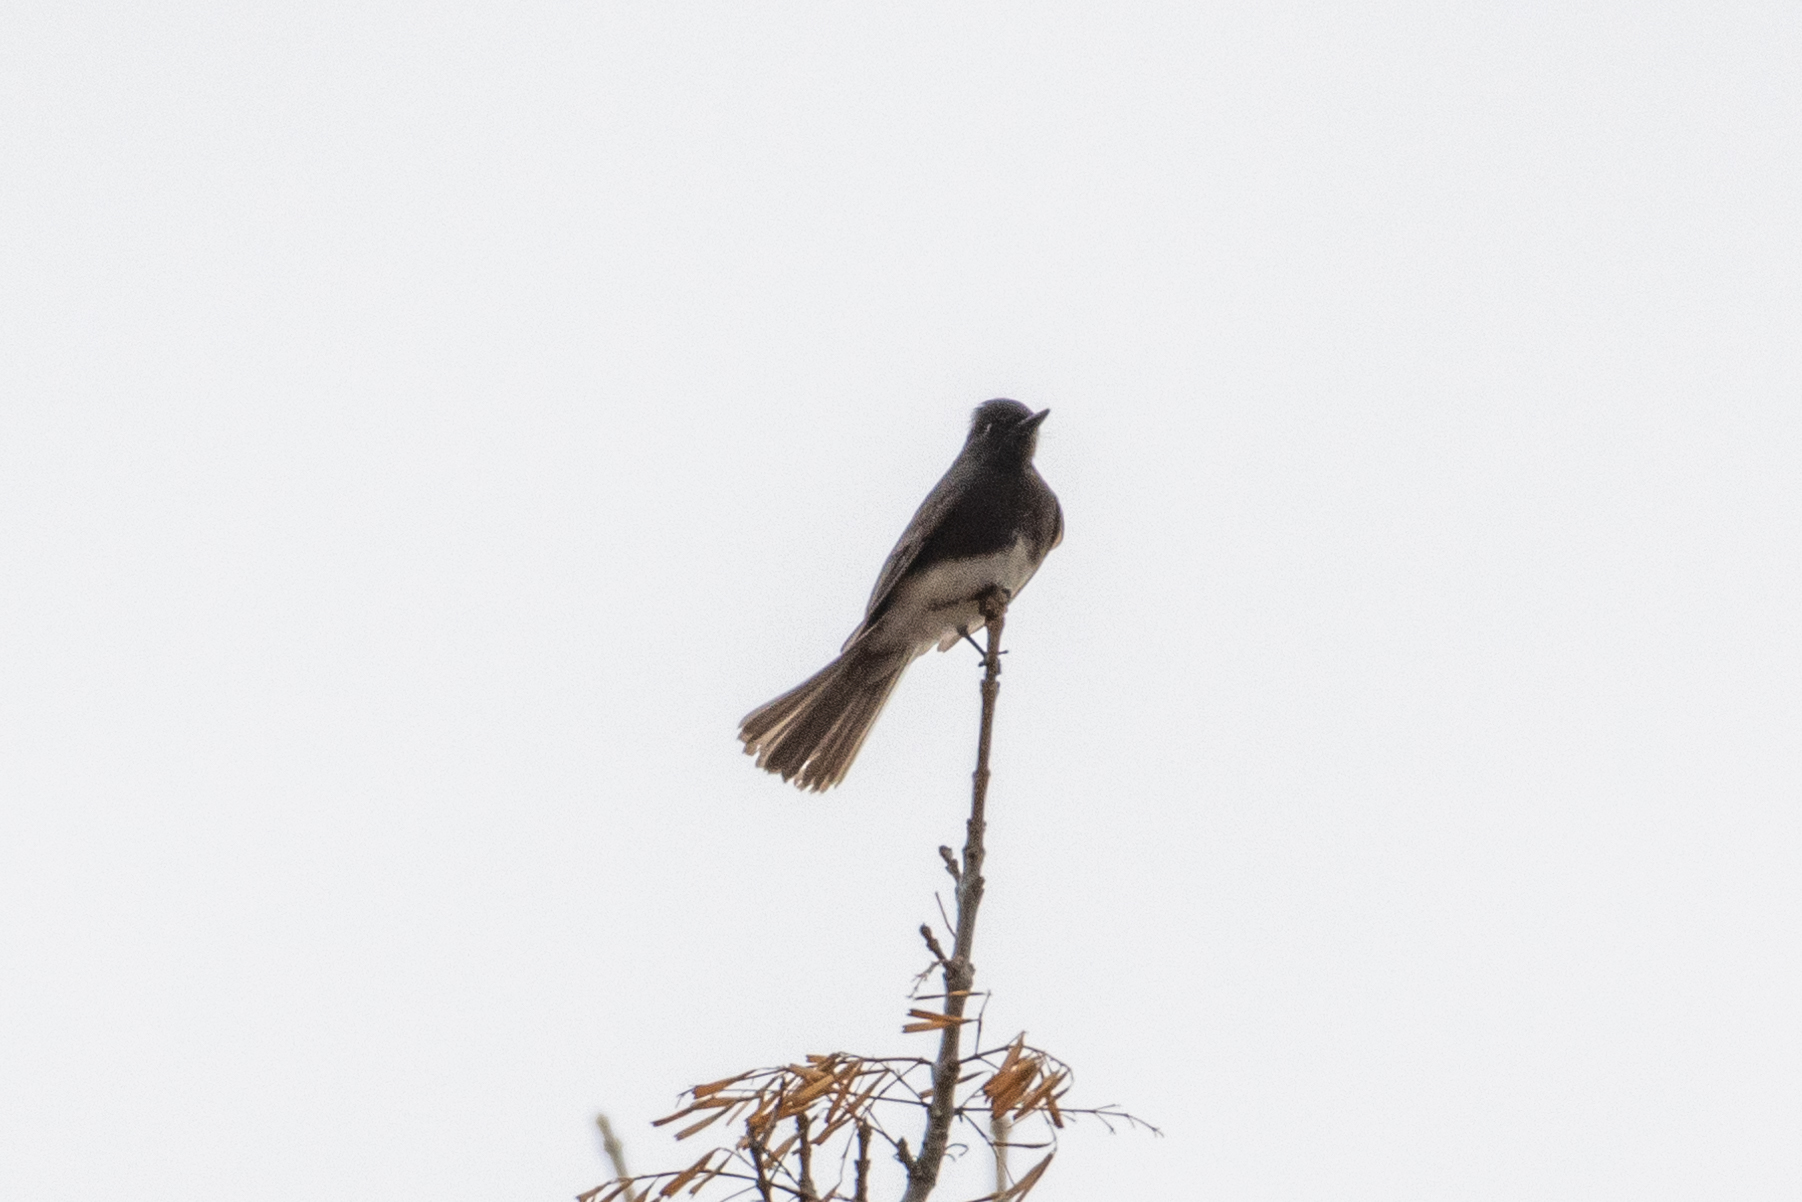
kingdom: Animalia
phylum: Chordata
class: Aves
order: Passeriformes
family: Tyrannidae
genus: Sayornis
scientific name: Sayornis nigricans
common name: Black phoebe
